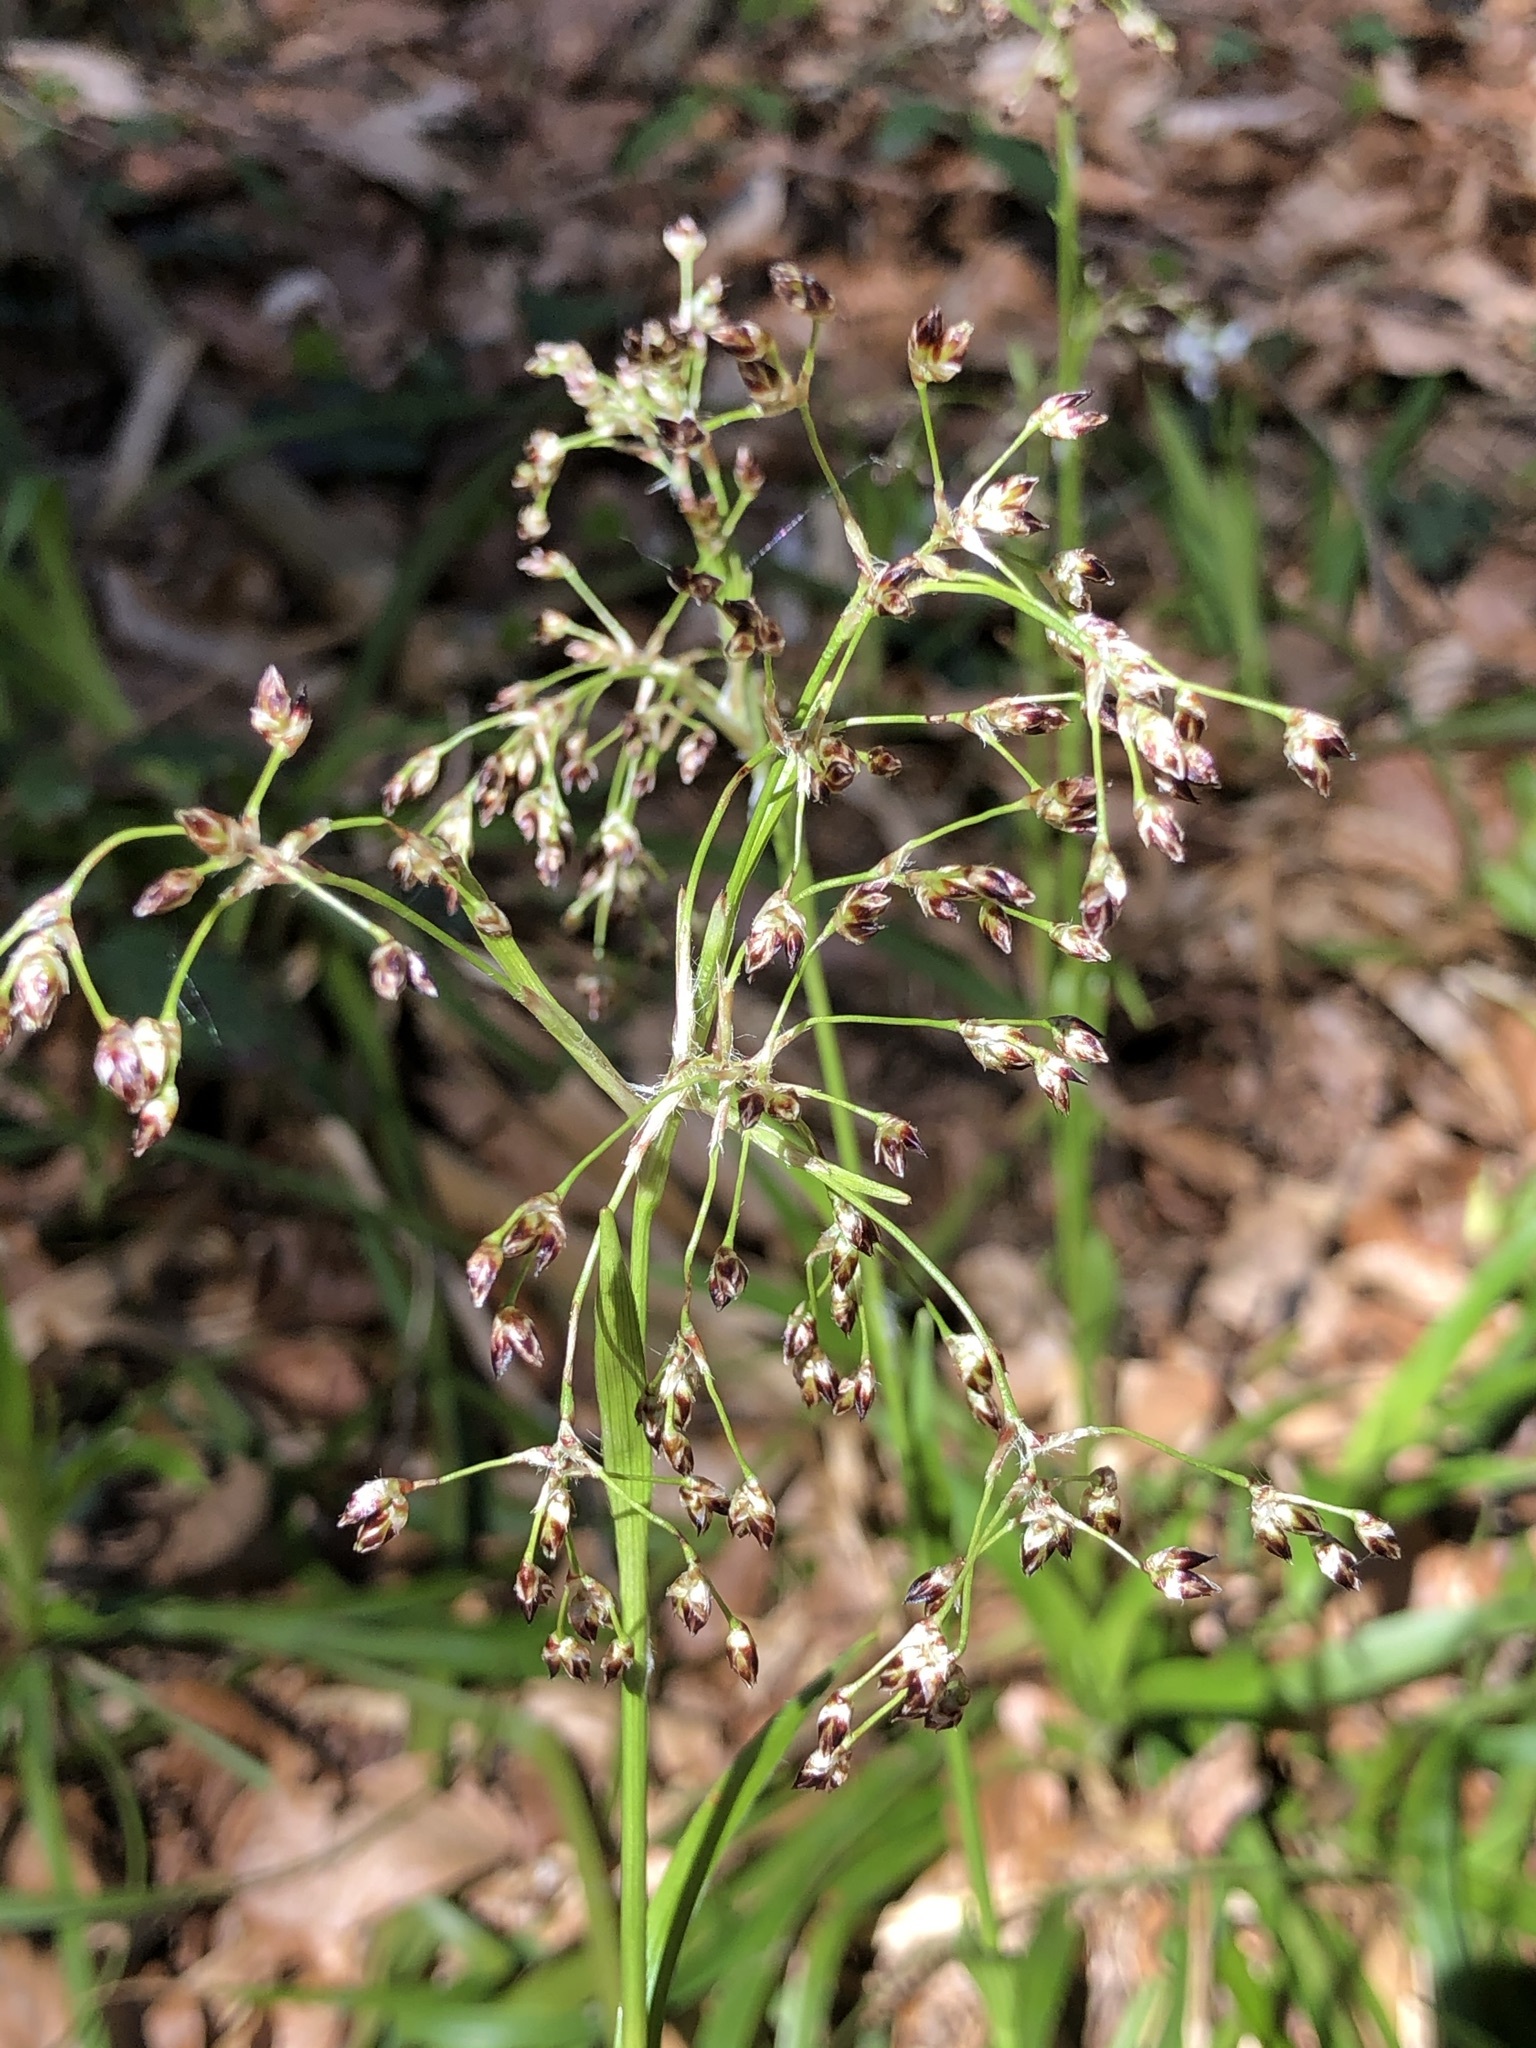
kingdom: Plantae
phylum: Tracheophyta
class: Liliopsida
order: Poales
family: Juncaceae
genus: Luzula
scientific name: Luzula sylvatica
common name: Great wood-rush
